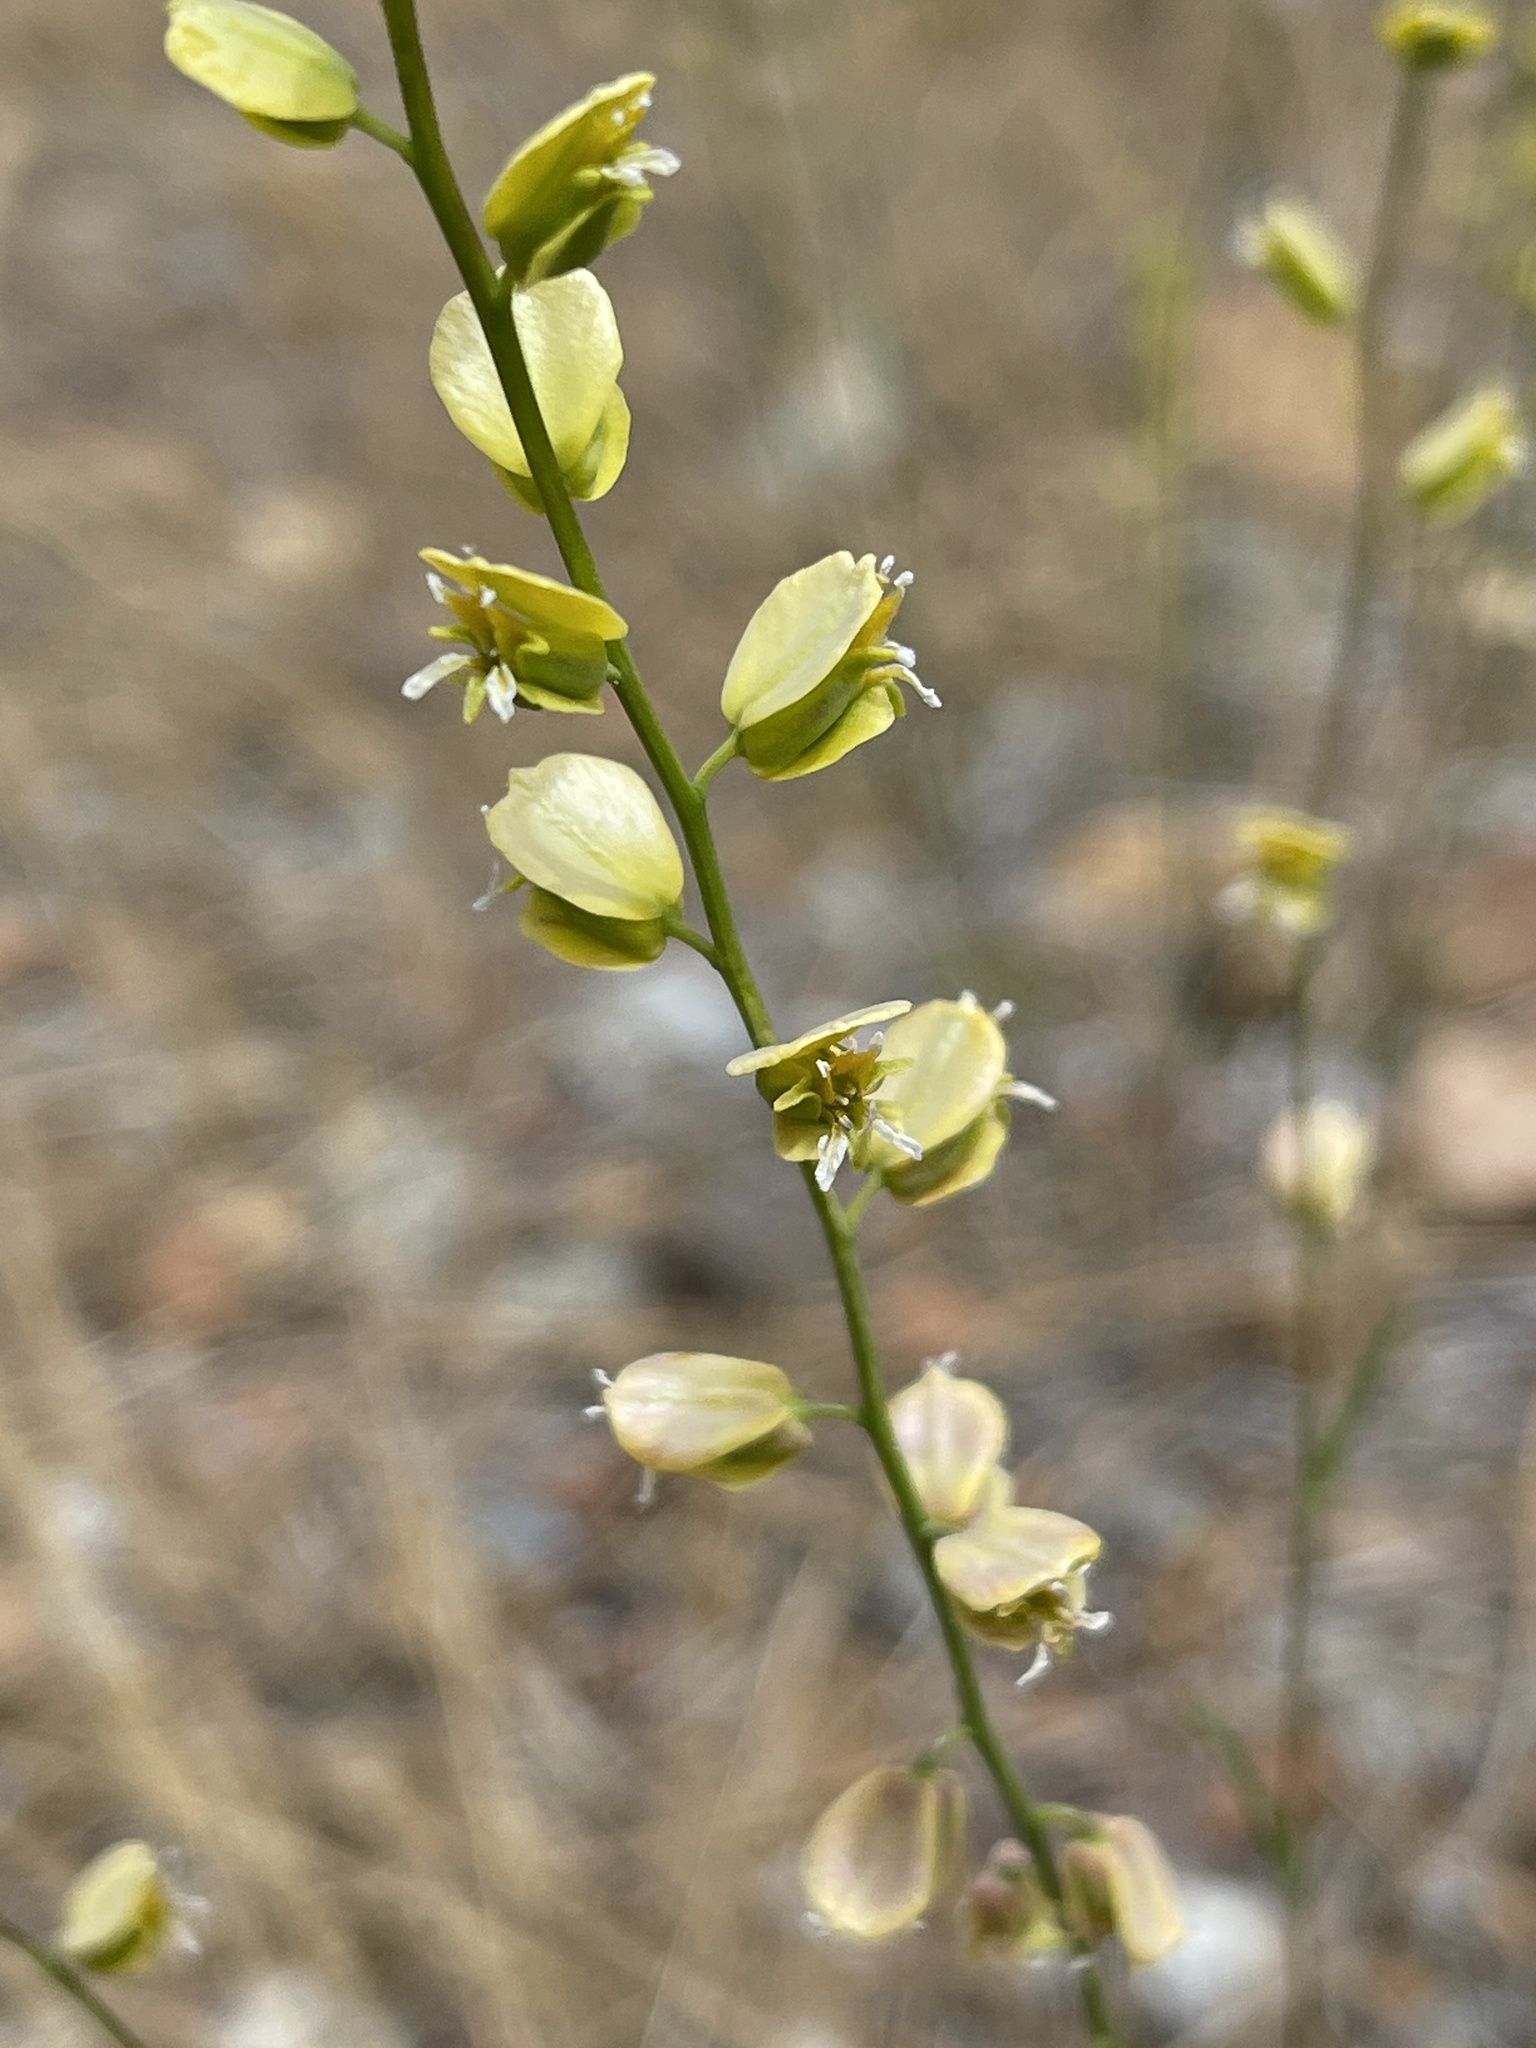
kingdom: Plantae
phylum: Tracheophyta
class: Magnoliopsida
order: Brassicales
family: Brassicaceae
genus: Streptanthus
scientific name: Streptanthus polygaloides
